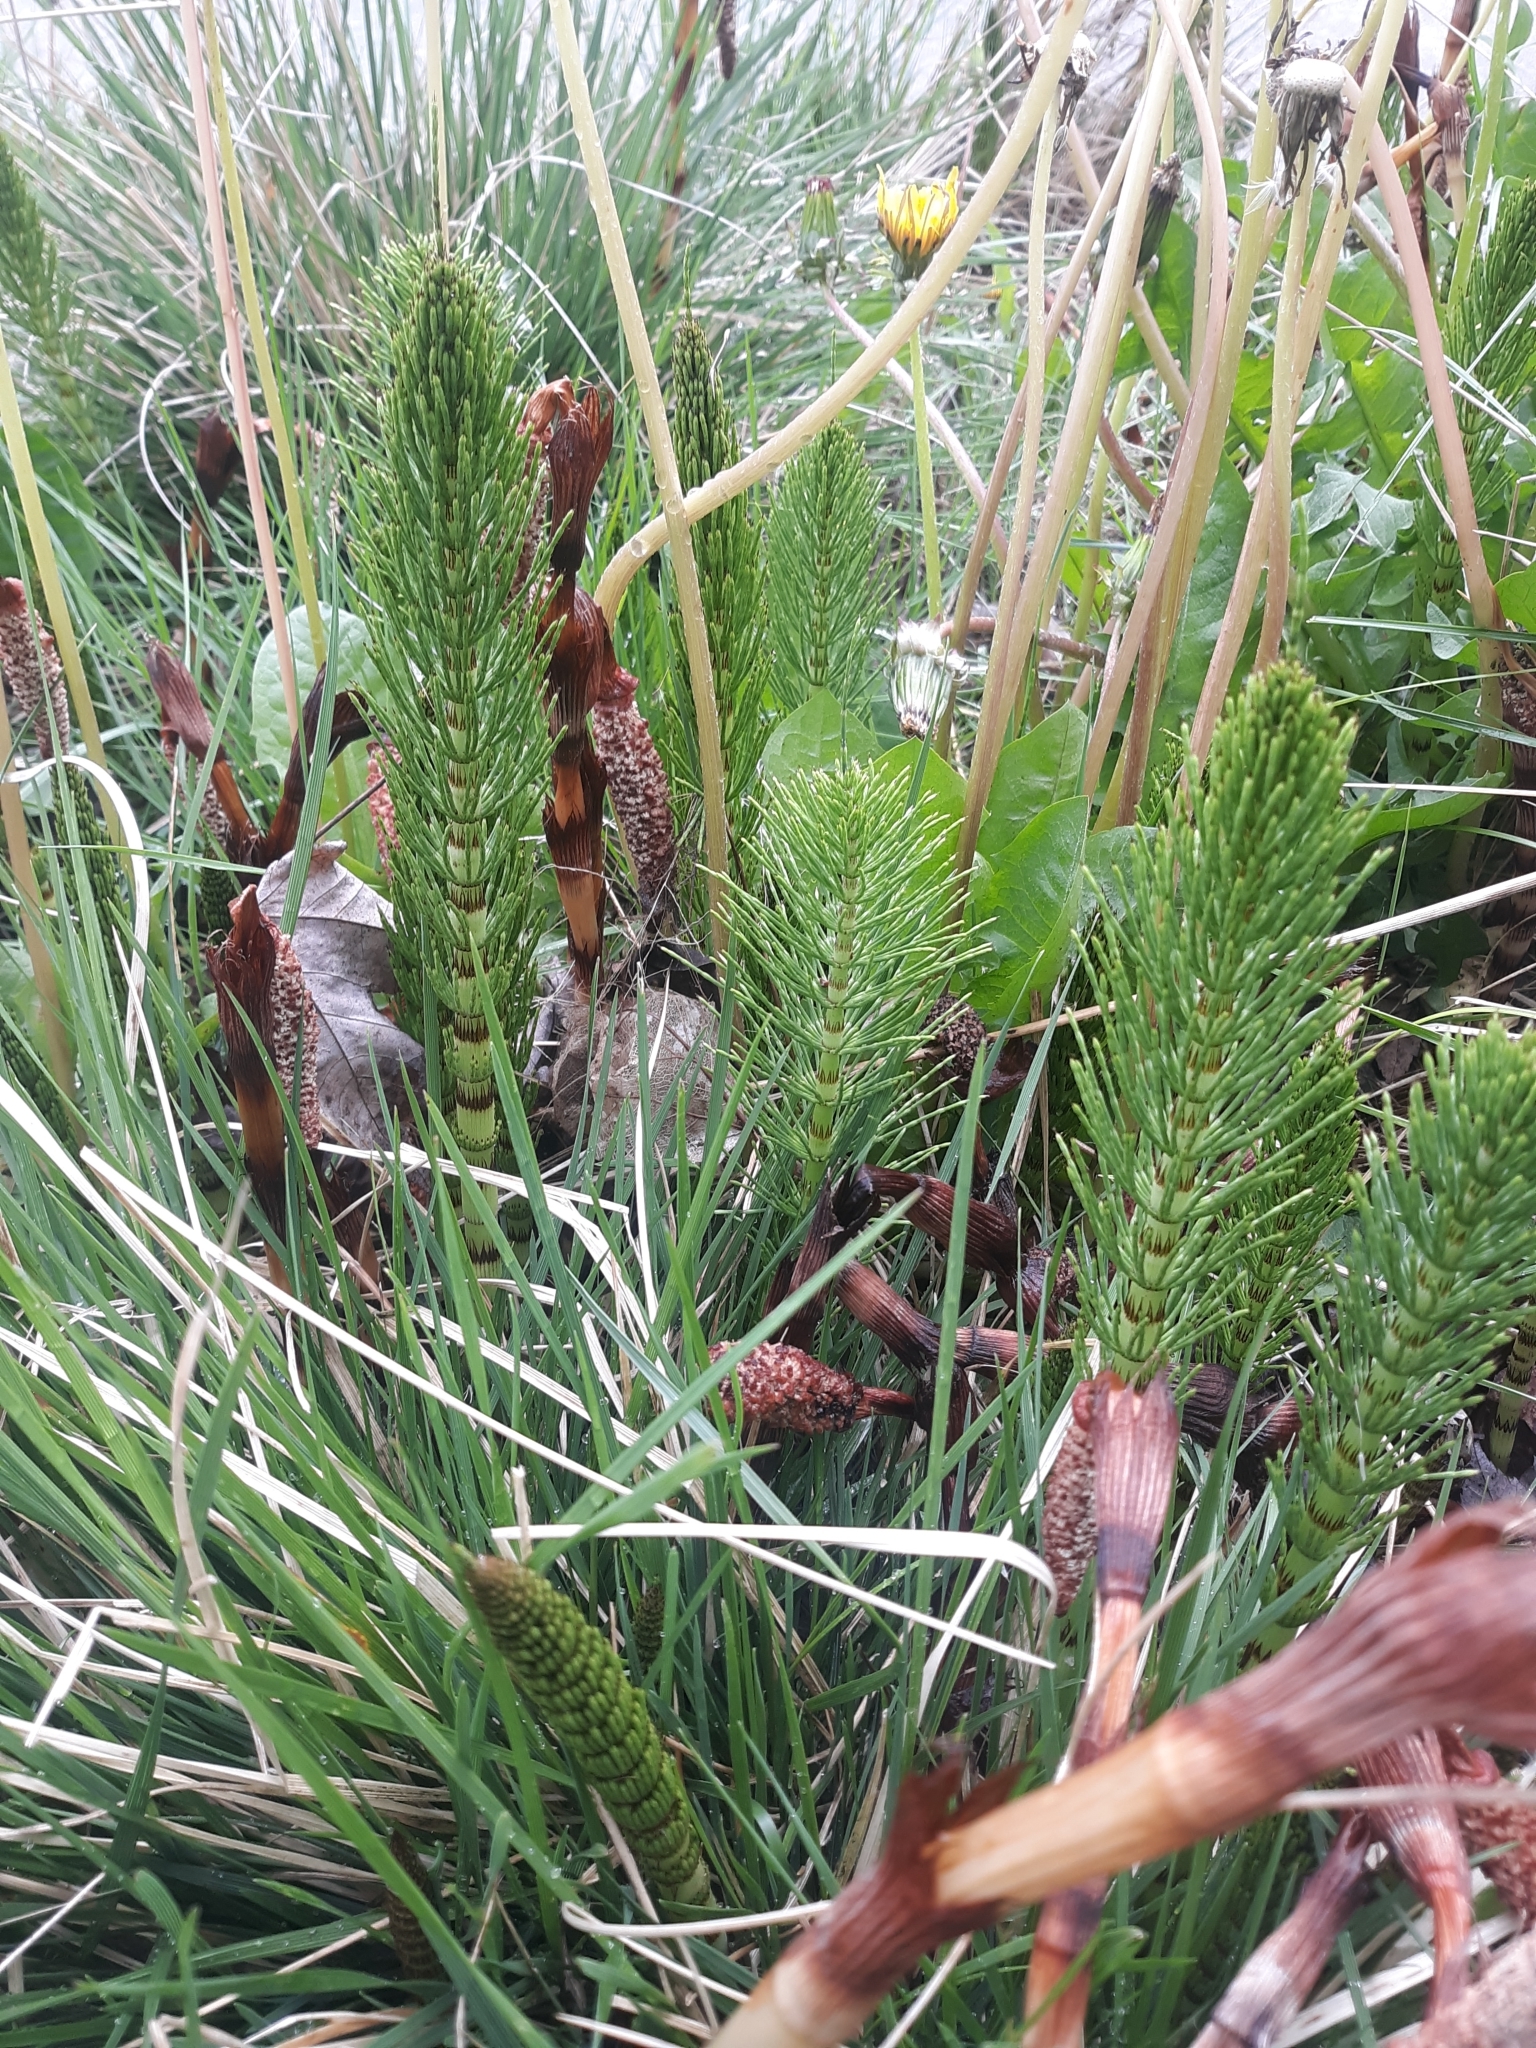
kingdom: Plantae
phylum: Tracheophyta
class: Polypodiopsida
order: Equisetales
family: Equisetaceae
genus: Equisetum
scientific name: Equisetum telmateia
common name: Great horsetail
